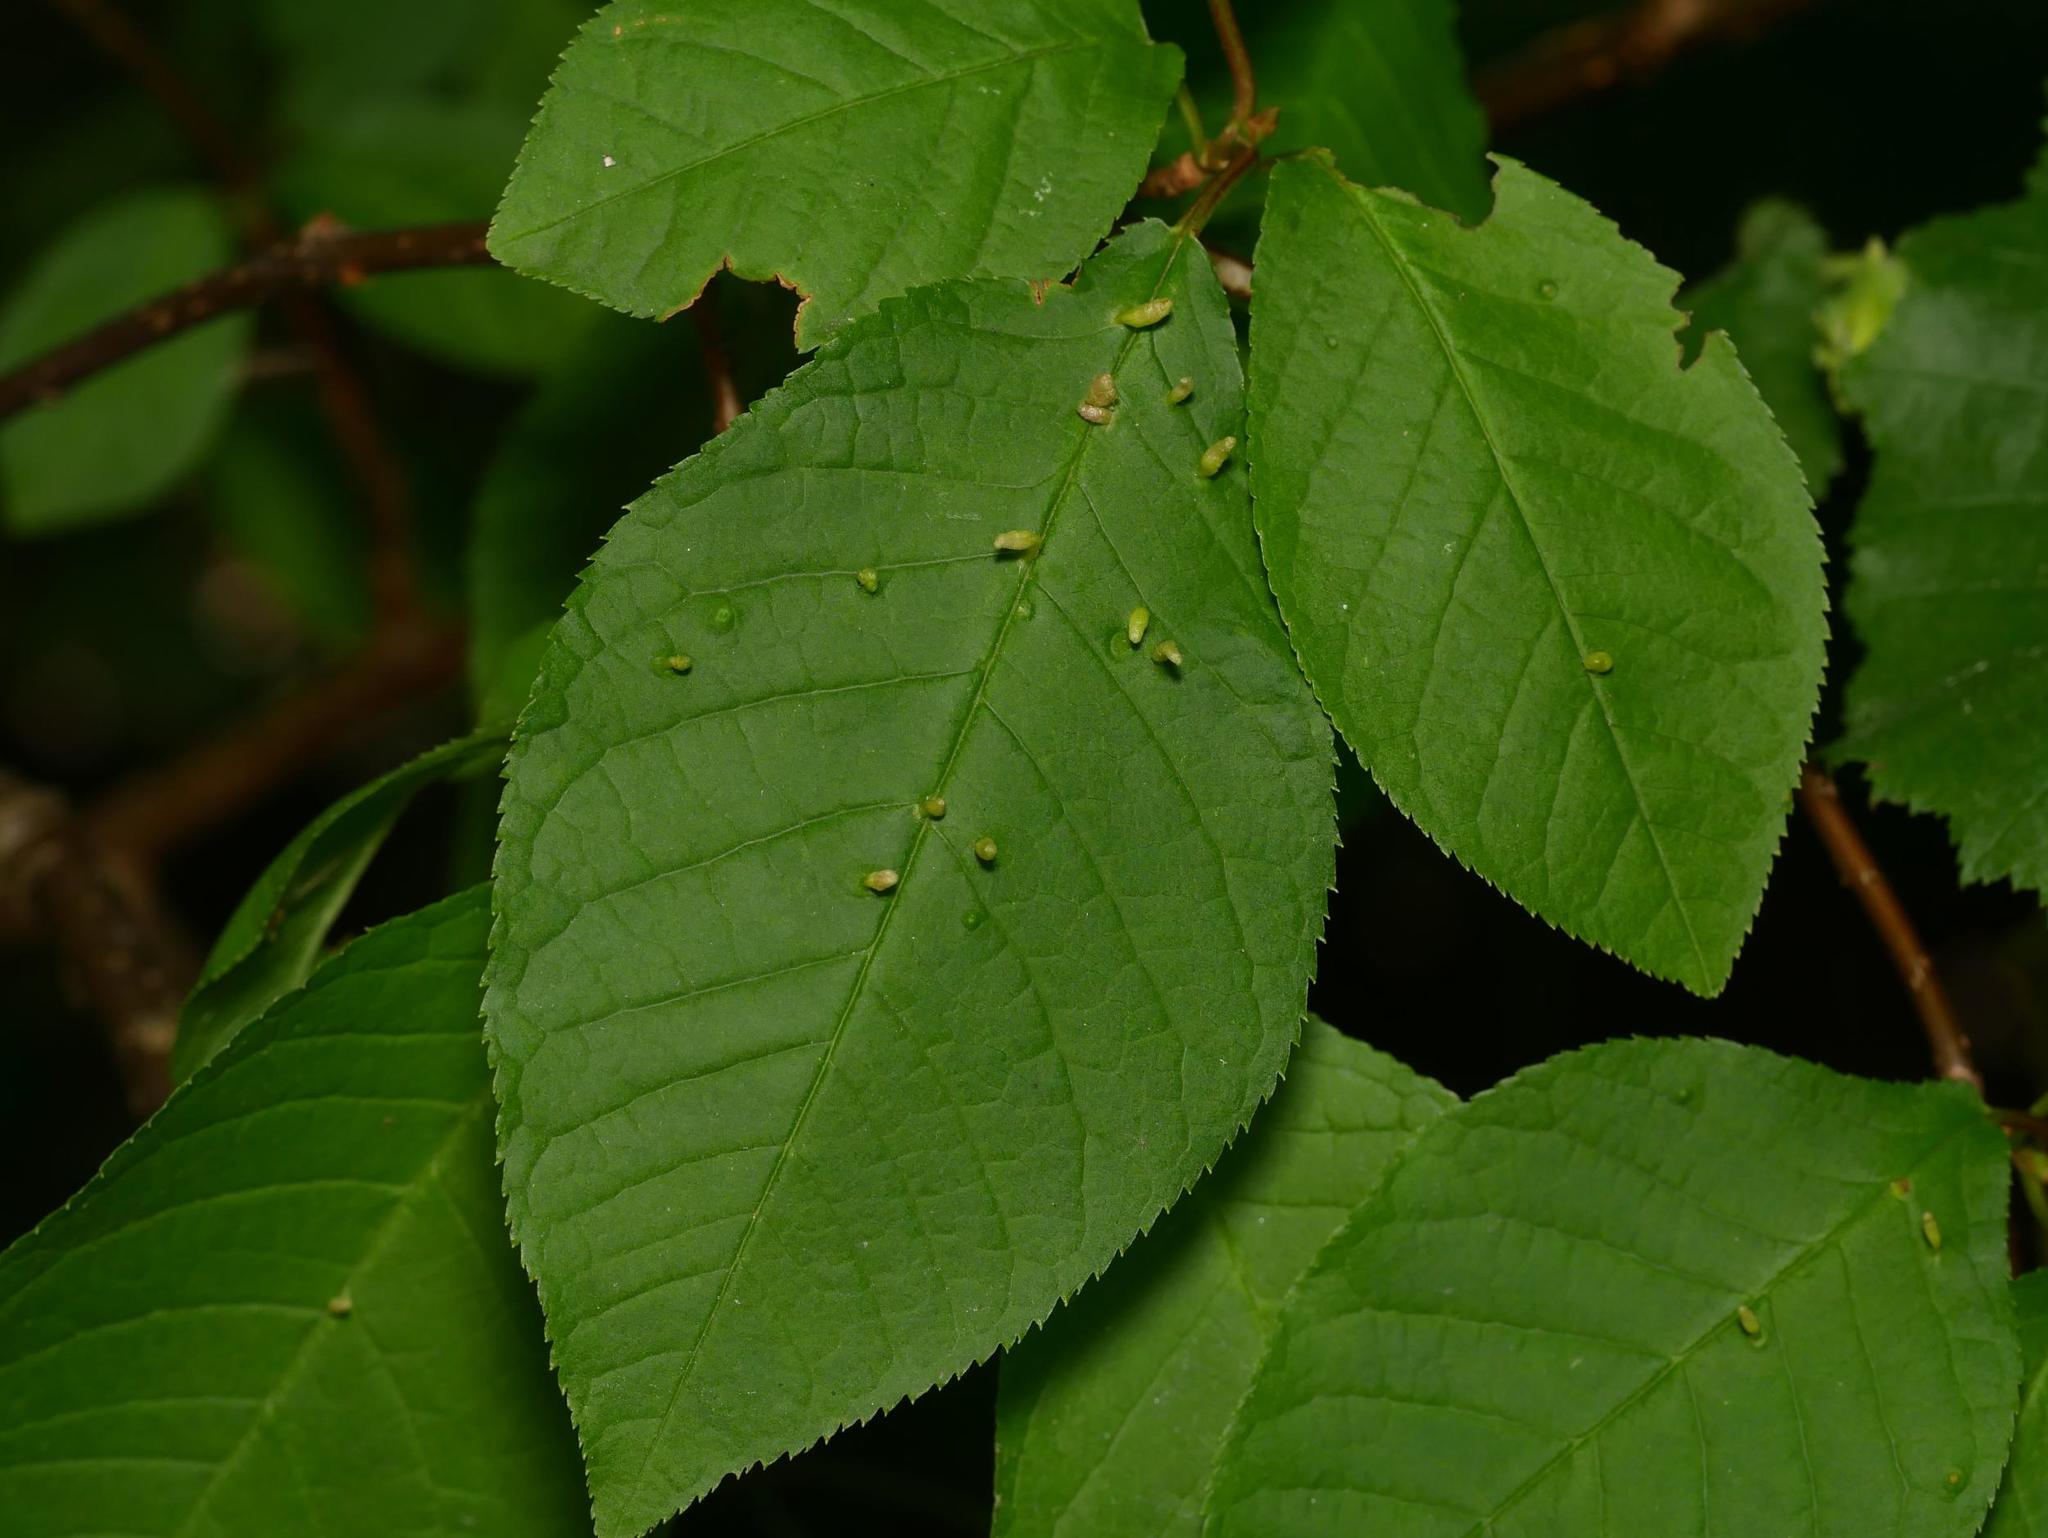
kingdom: Plantae
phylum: Tracheophyta
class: Magnoliopsida
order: Rosales
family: Rosaceae
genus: Prunus
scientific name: Prunus padus
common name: Bird cherry
